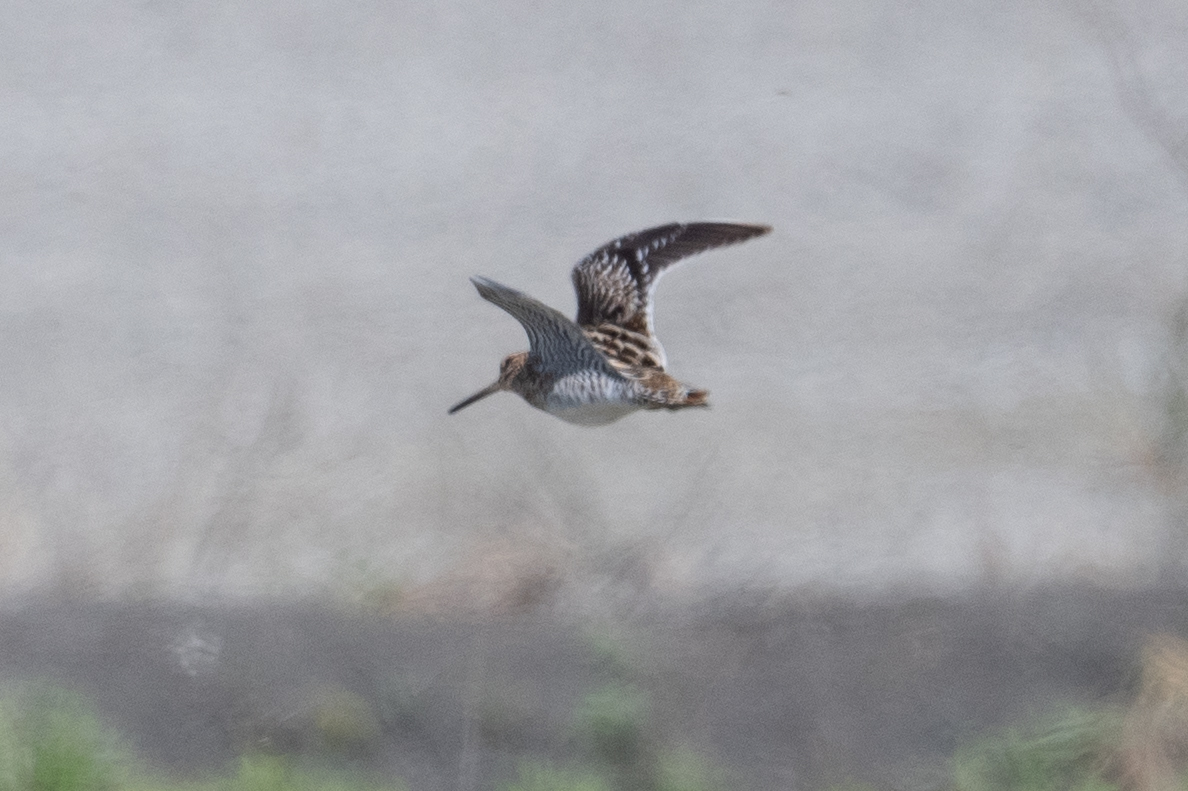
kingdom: Animalia
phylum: Chordata
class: Aves
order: Charadriiformes
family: Scolopacidae
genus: Gallinago
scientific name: Gallinago delicata
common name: Wilson's snipe
